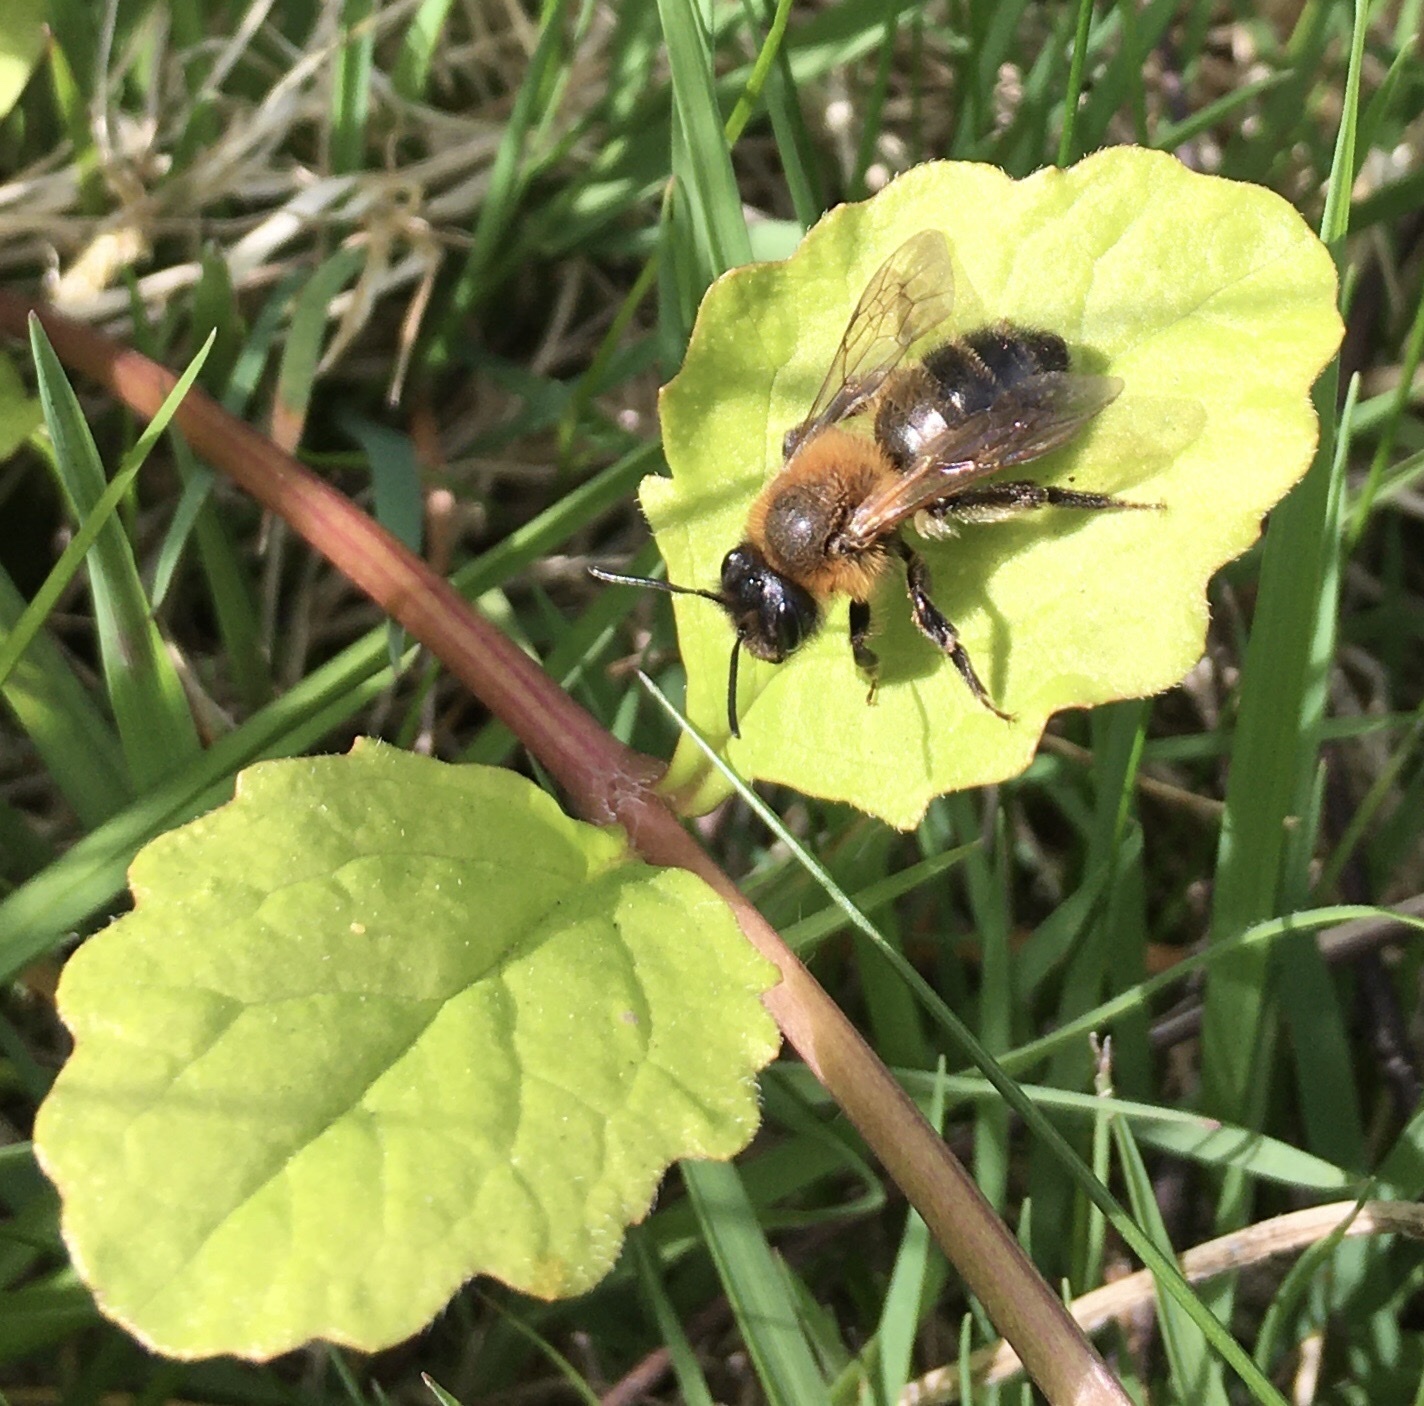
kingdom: Animalia
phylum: Arthropoda
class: Insecta
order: Hymenoptera
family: Andrenidae
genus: Andrena
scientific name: Andrena carantonica
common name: Chocolate mining bee
